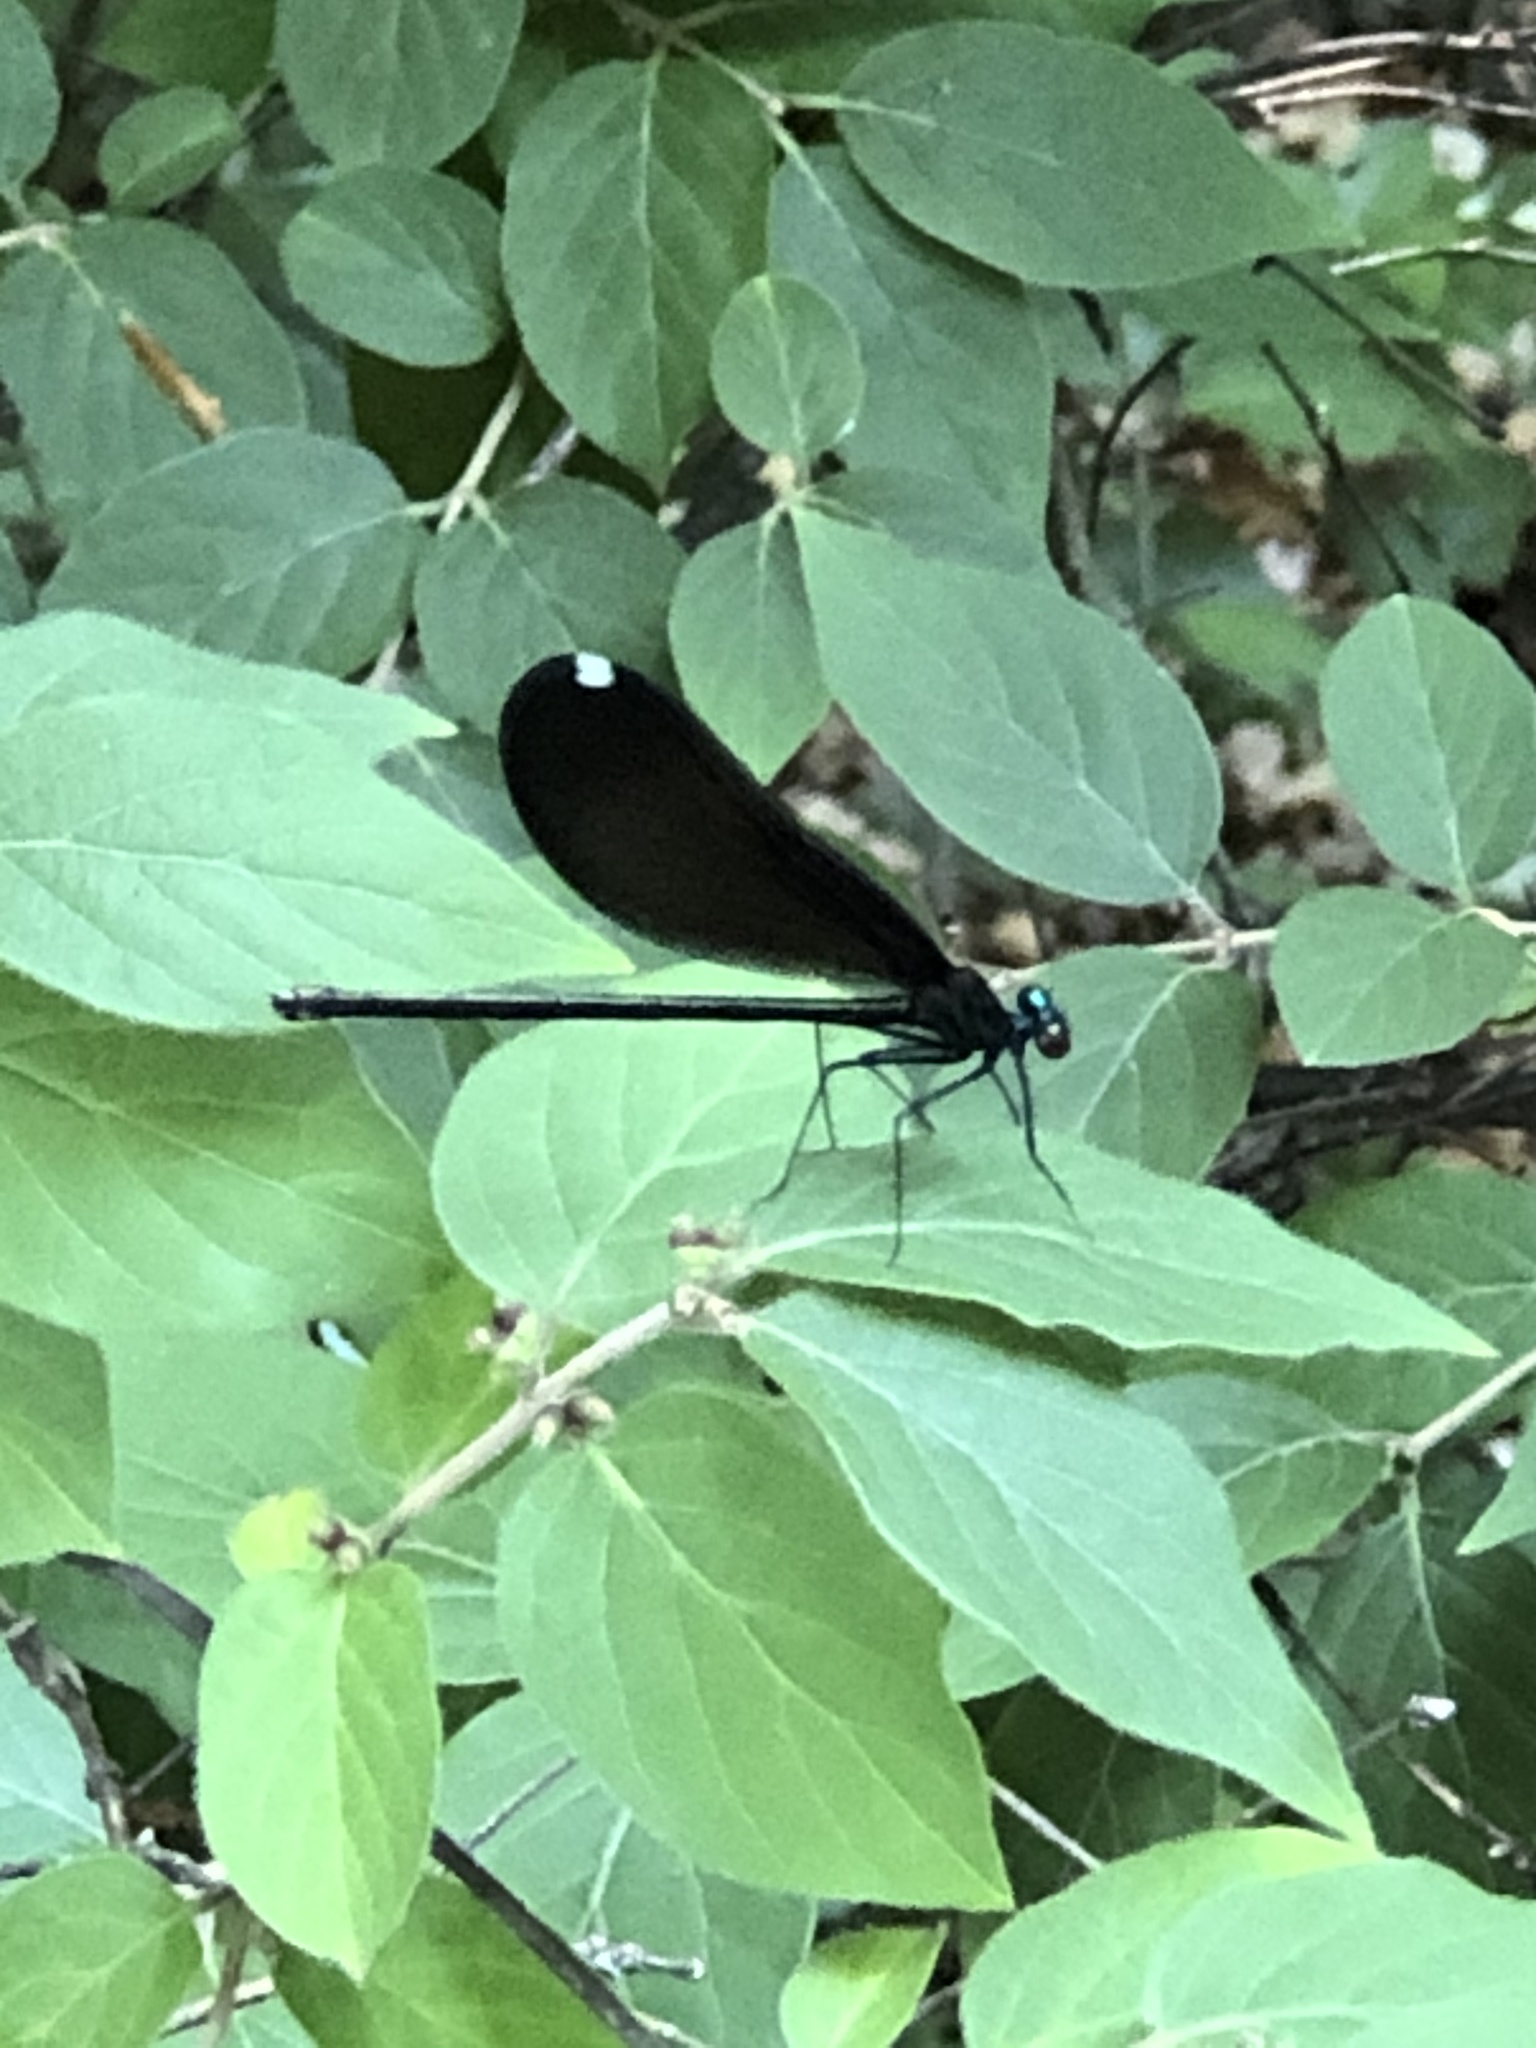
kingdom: Animalia
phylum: Arthropoda
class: Insecta
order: Odonata
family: Calopterygidae
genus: Calopteryx
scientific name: Calopteryx maculata
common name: Ebony jewelwing
